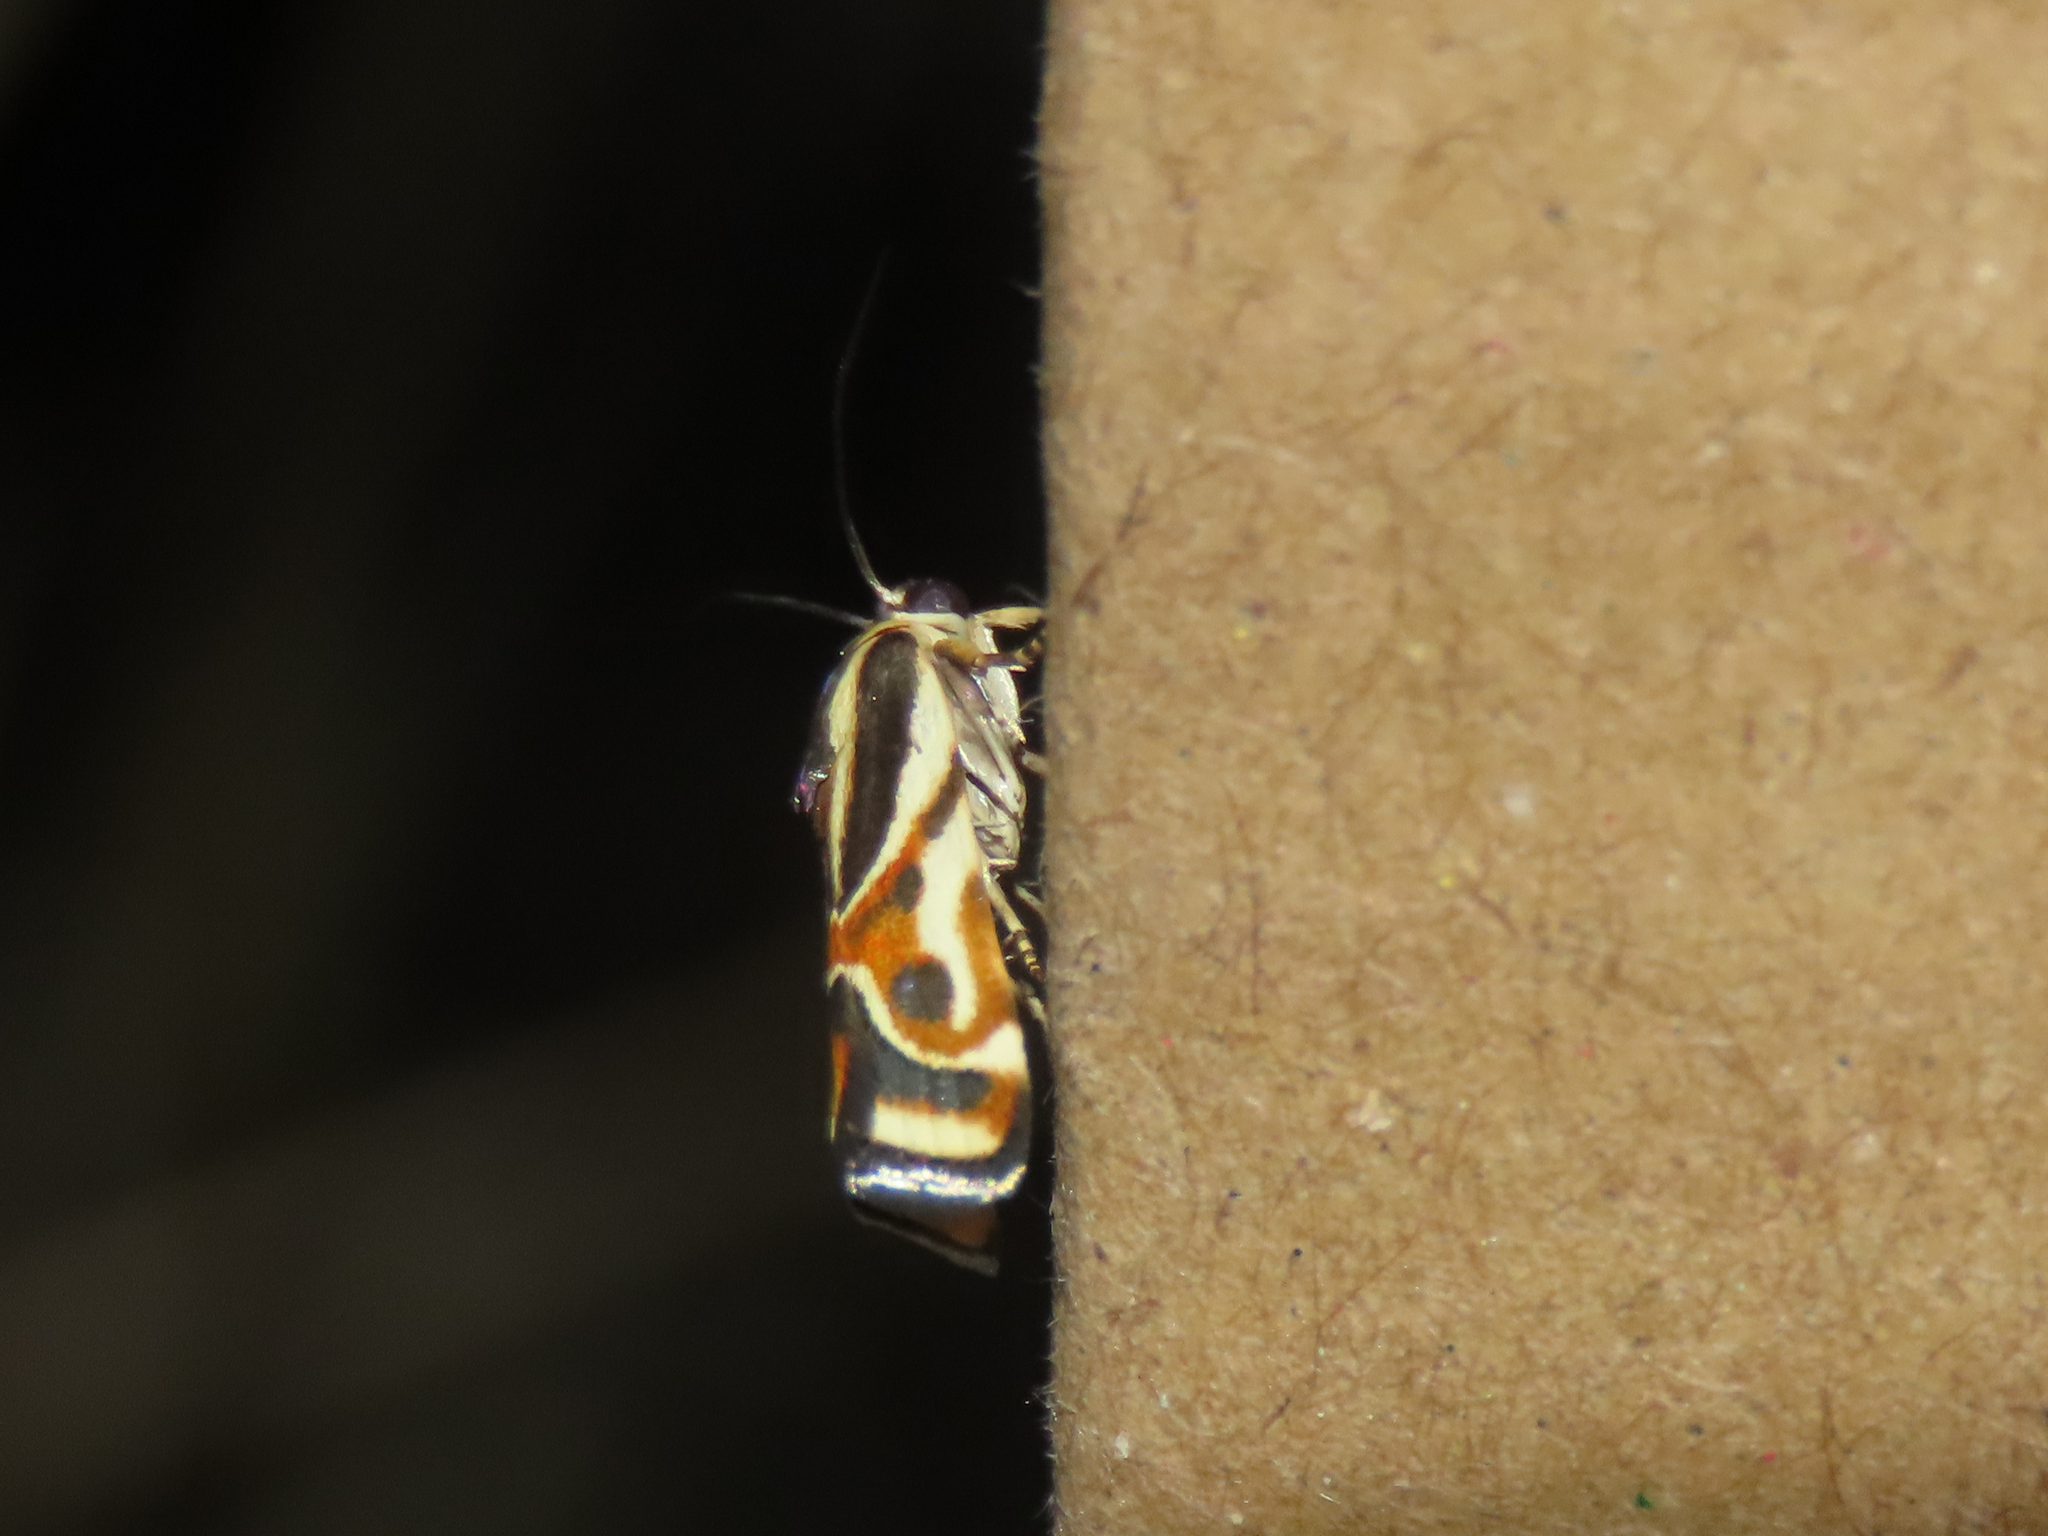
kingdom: Animalia
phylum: Arthropoda
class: Insecta
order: Lepidoptera
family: Noctuidae
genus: Spragueia
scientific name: Spragueia magnifica
